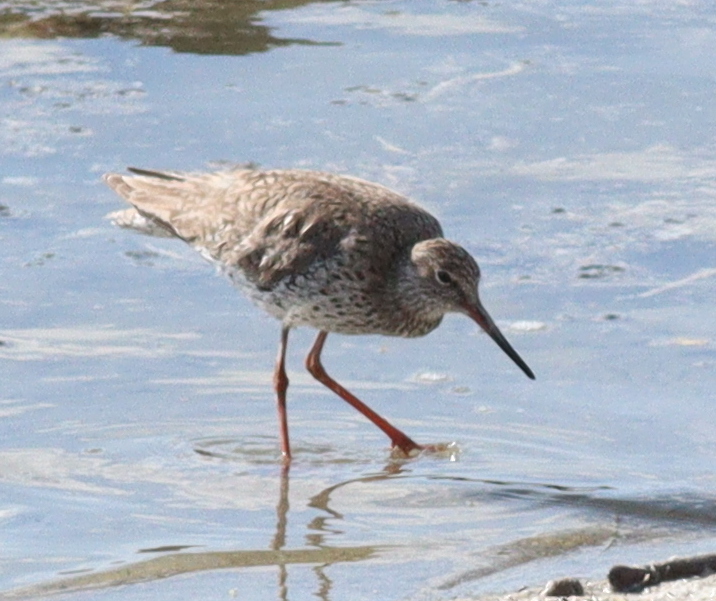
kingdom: Animalia
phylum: Chordata
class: Aves
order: Charadriiformes
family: Scolopacidae
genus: Tringa
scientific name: Tringa totanus
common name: Common redshank
